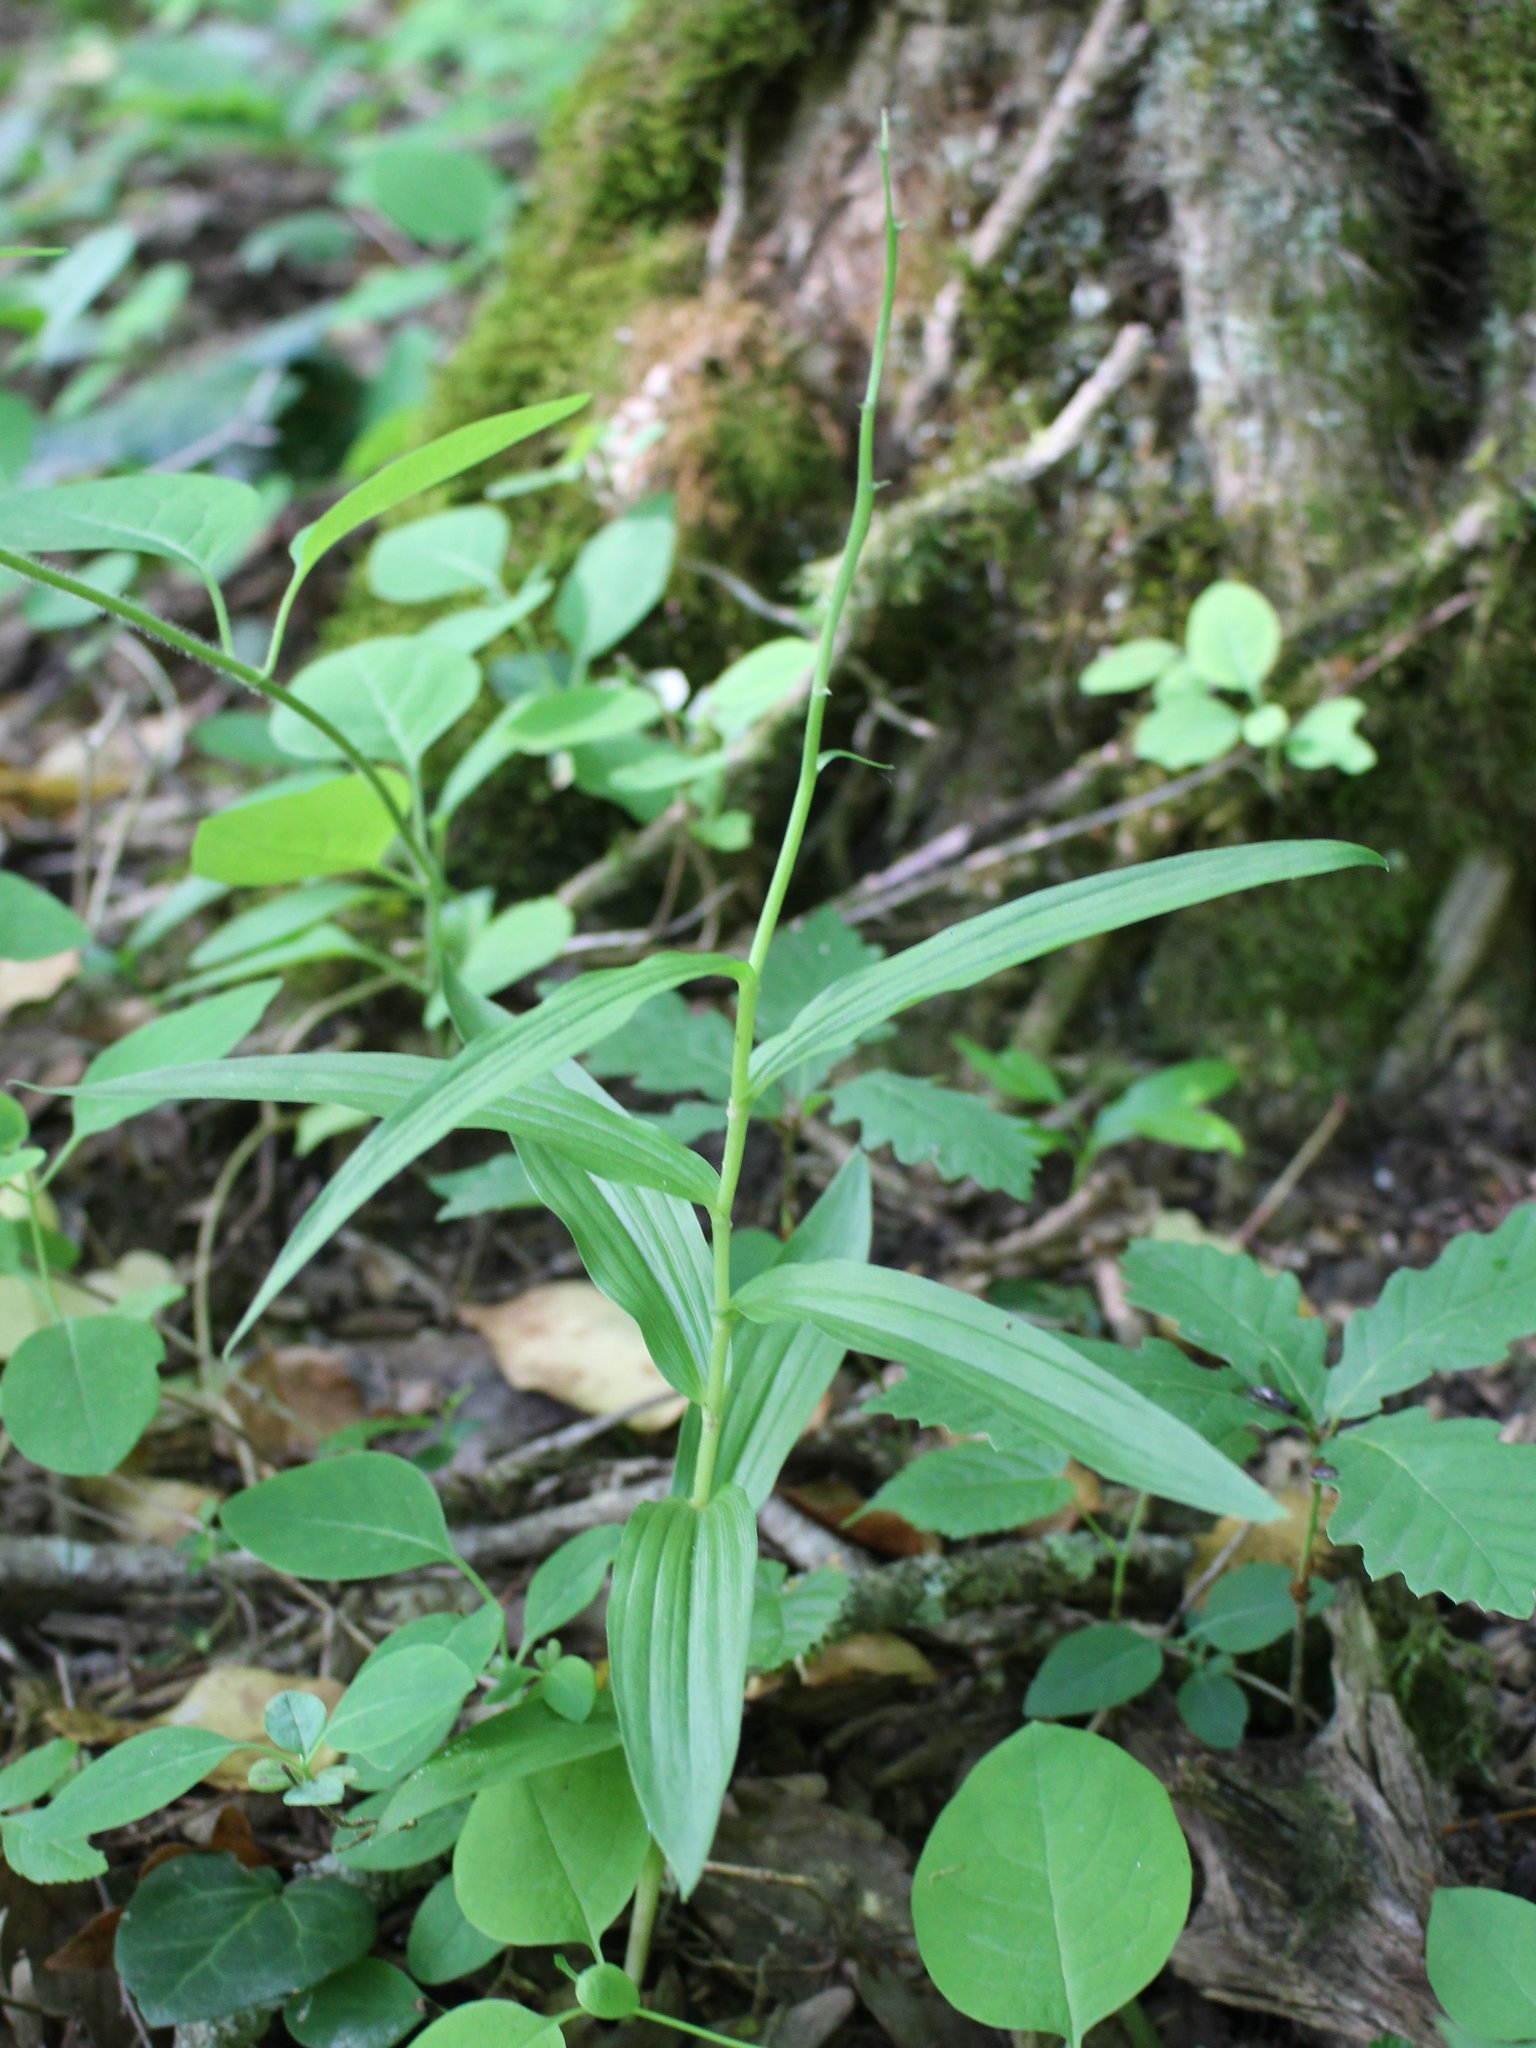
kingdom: Plantae
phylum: Tracheophyta
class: Liliopsida
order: Asparagales
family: Orchidaceae
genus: Cephalanthera
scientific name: Cephalanthera longifolia
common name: Narrow-leaved helleborine
